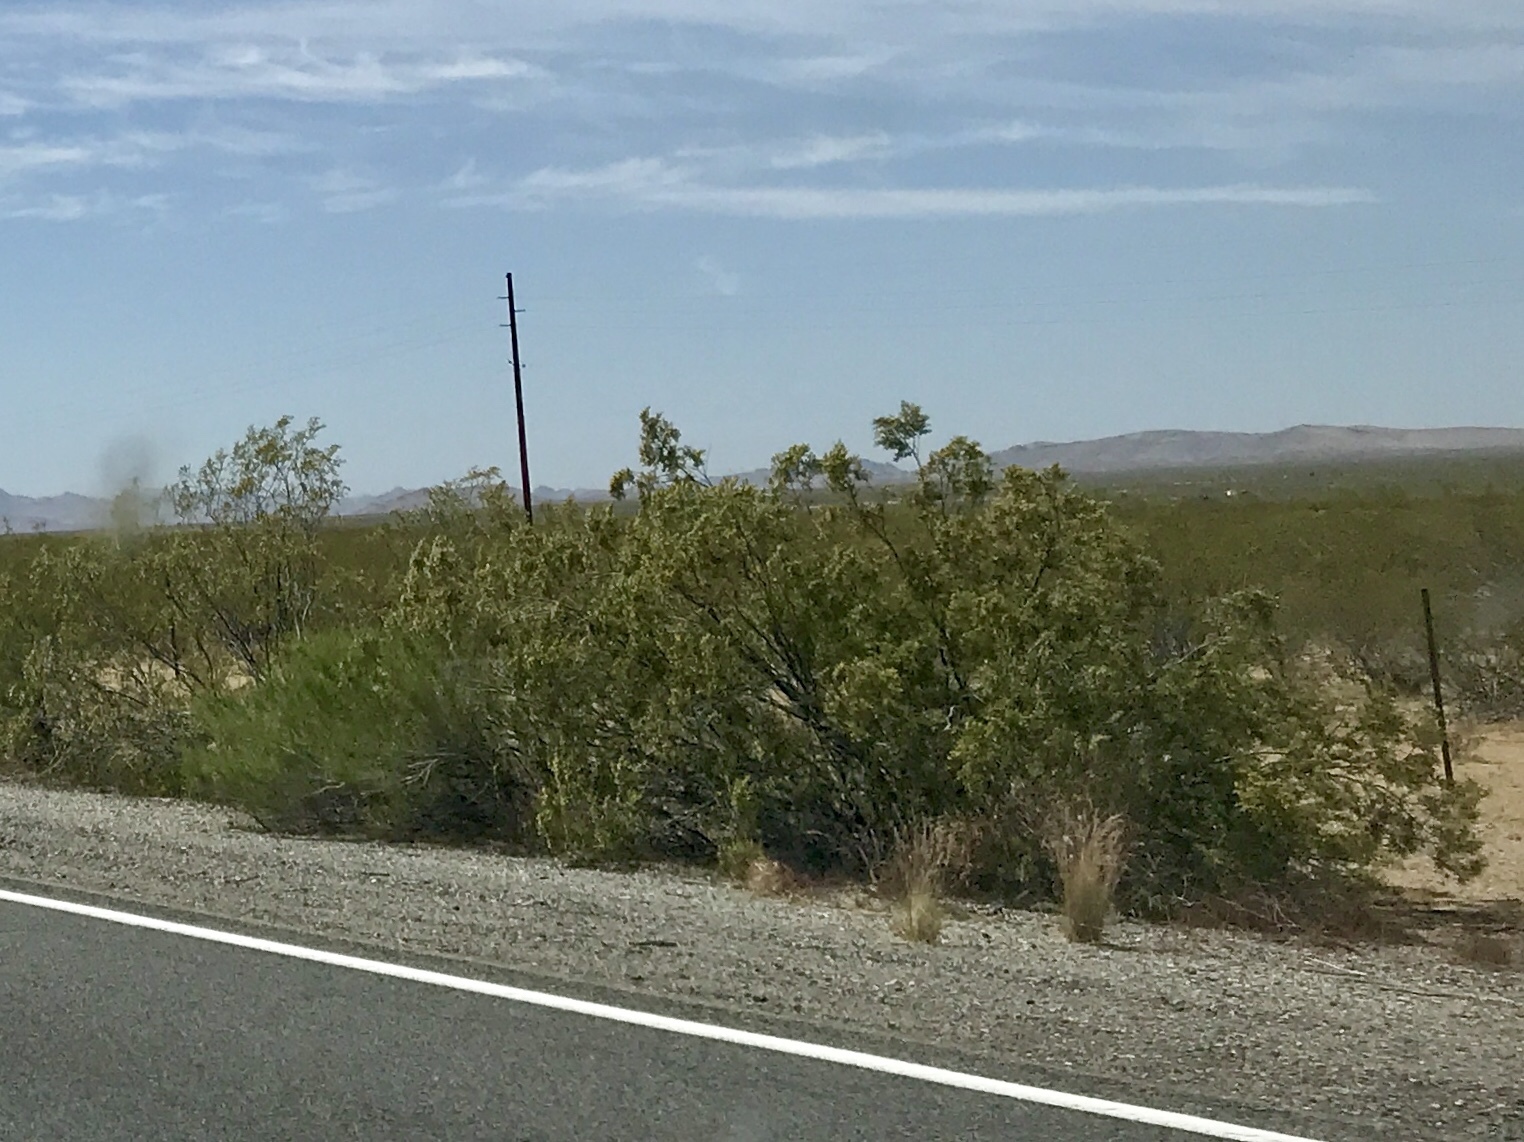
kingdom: Plantae
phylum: Tracheophyta
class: Magnoliopsida
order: Zygophyllales
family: Zygophyllaceae
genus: Larrea
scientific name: Larrea tridentata
